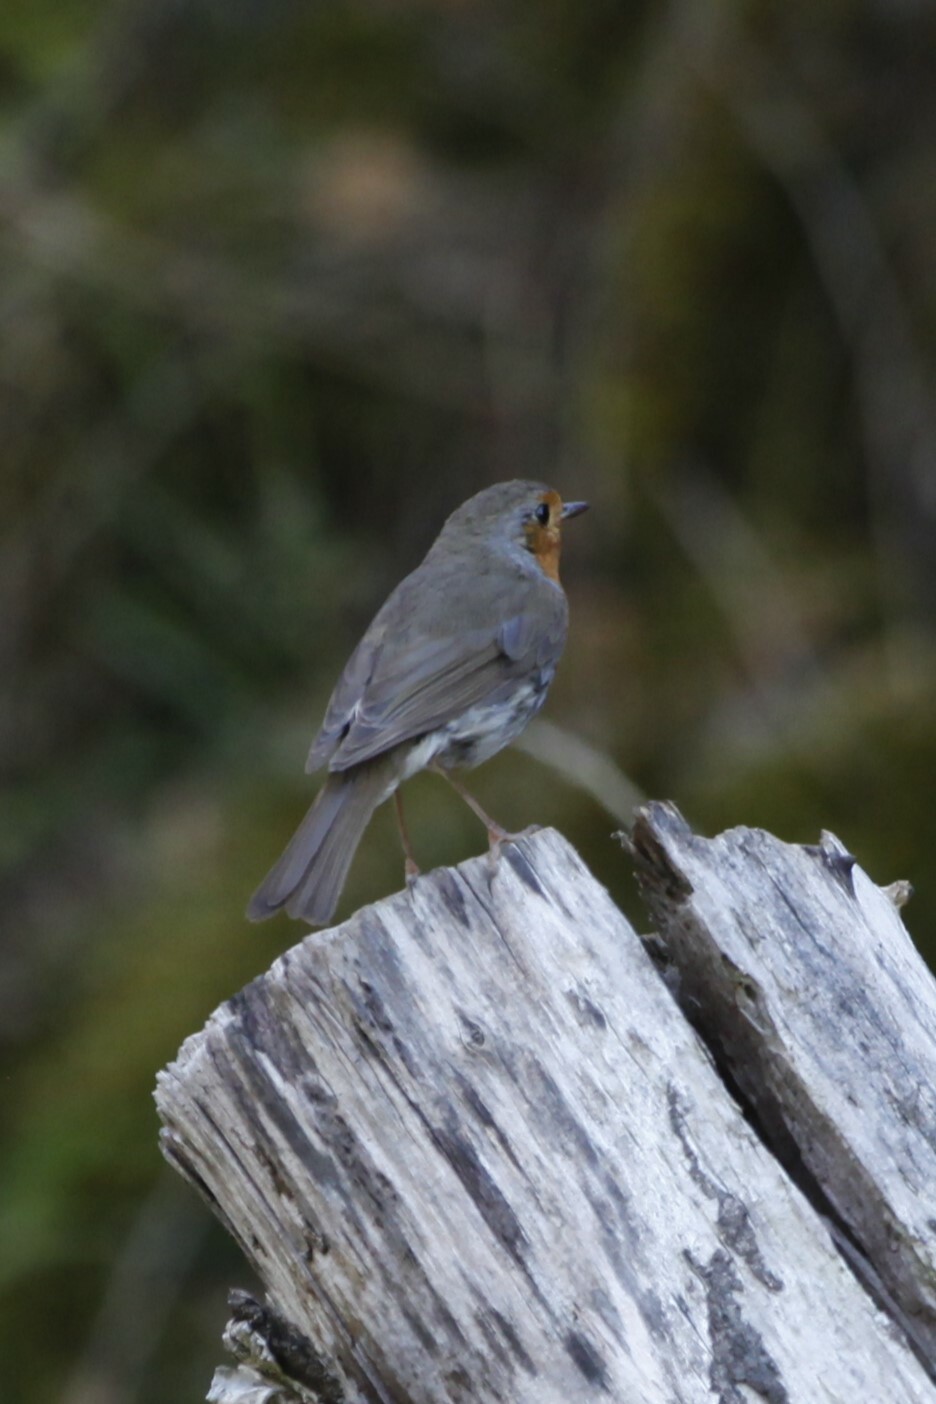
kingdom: Animalia
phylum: Chordata
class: Aves
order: Passeriformes
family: Muscicapidae
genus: Erithacus
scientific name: Erithacus rubecula
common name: European robin
